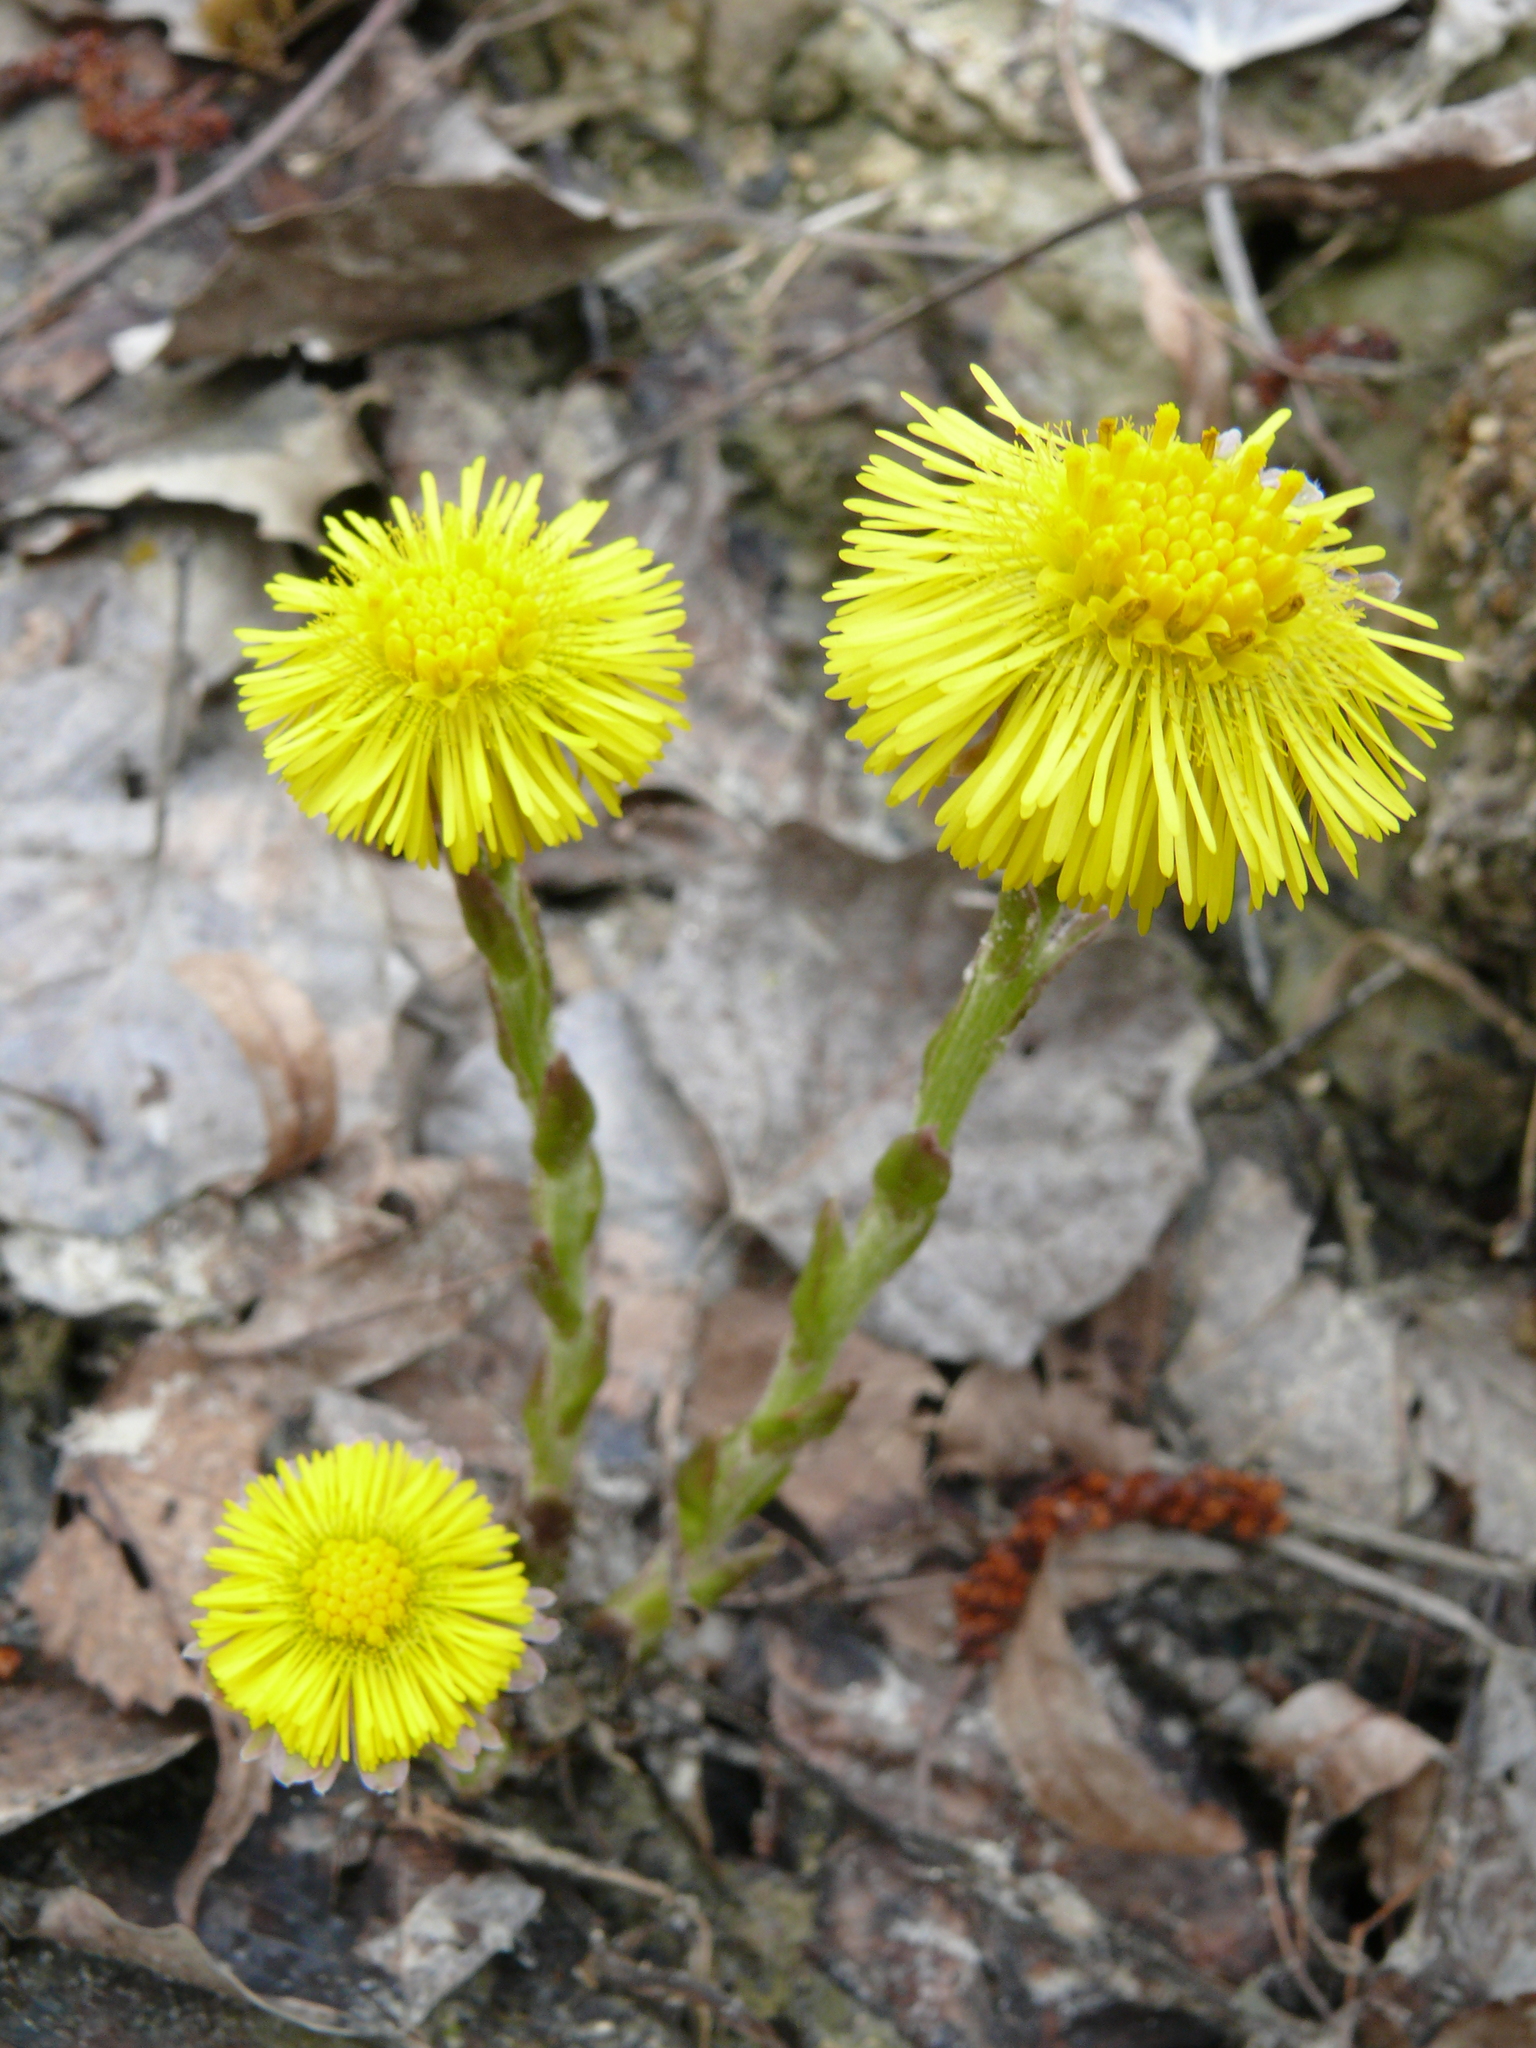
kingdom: Plantae
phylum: Tracheophyta
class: Magnoliopsida
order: Asterales
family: Asteraceae
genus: Tussilago
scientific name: Tussilago farfara
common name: Coltsfoot
